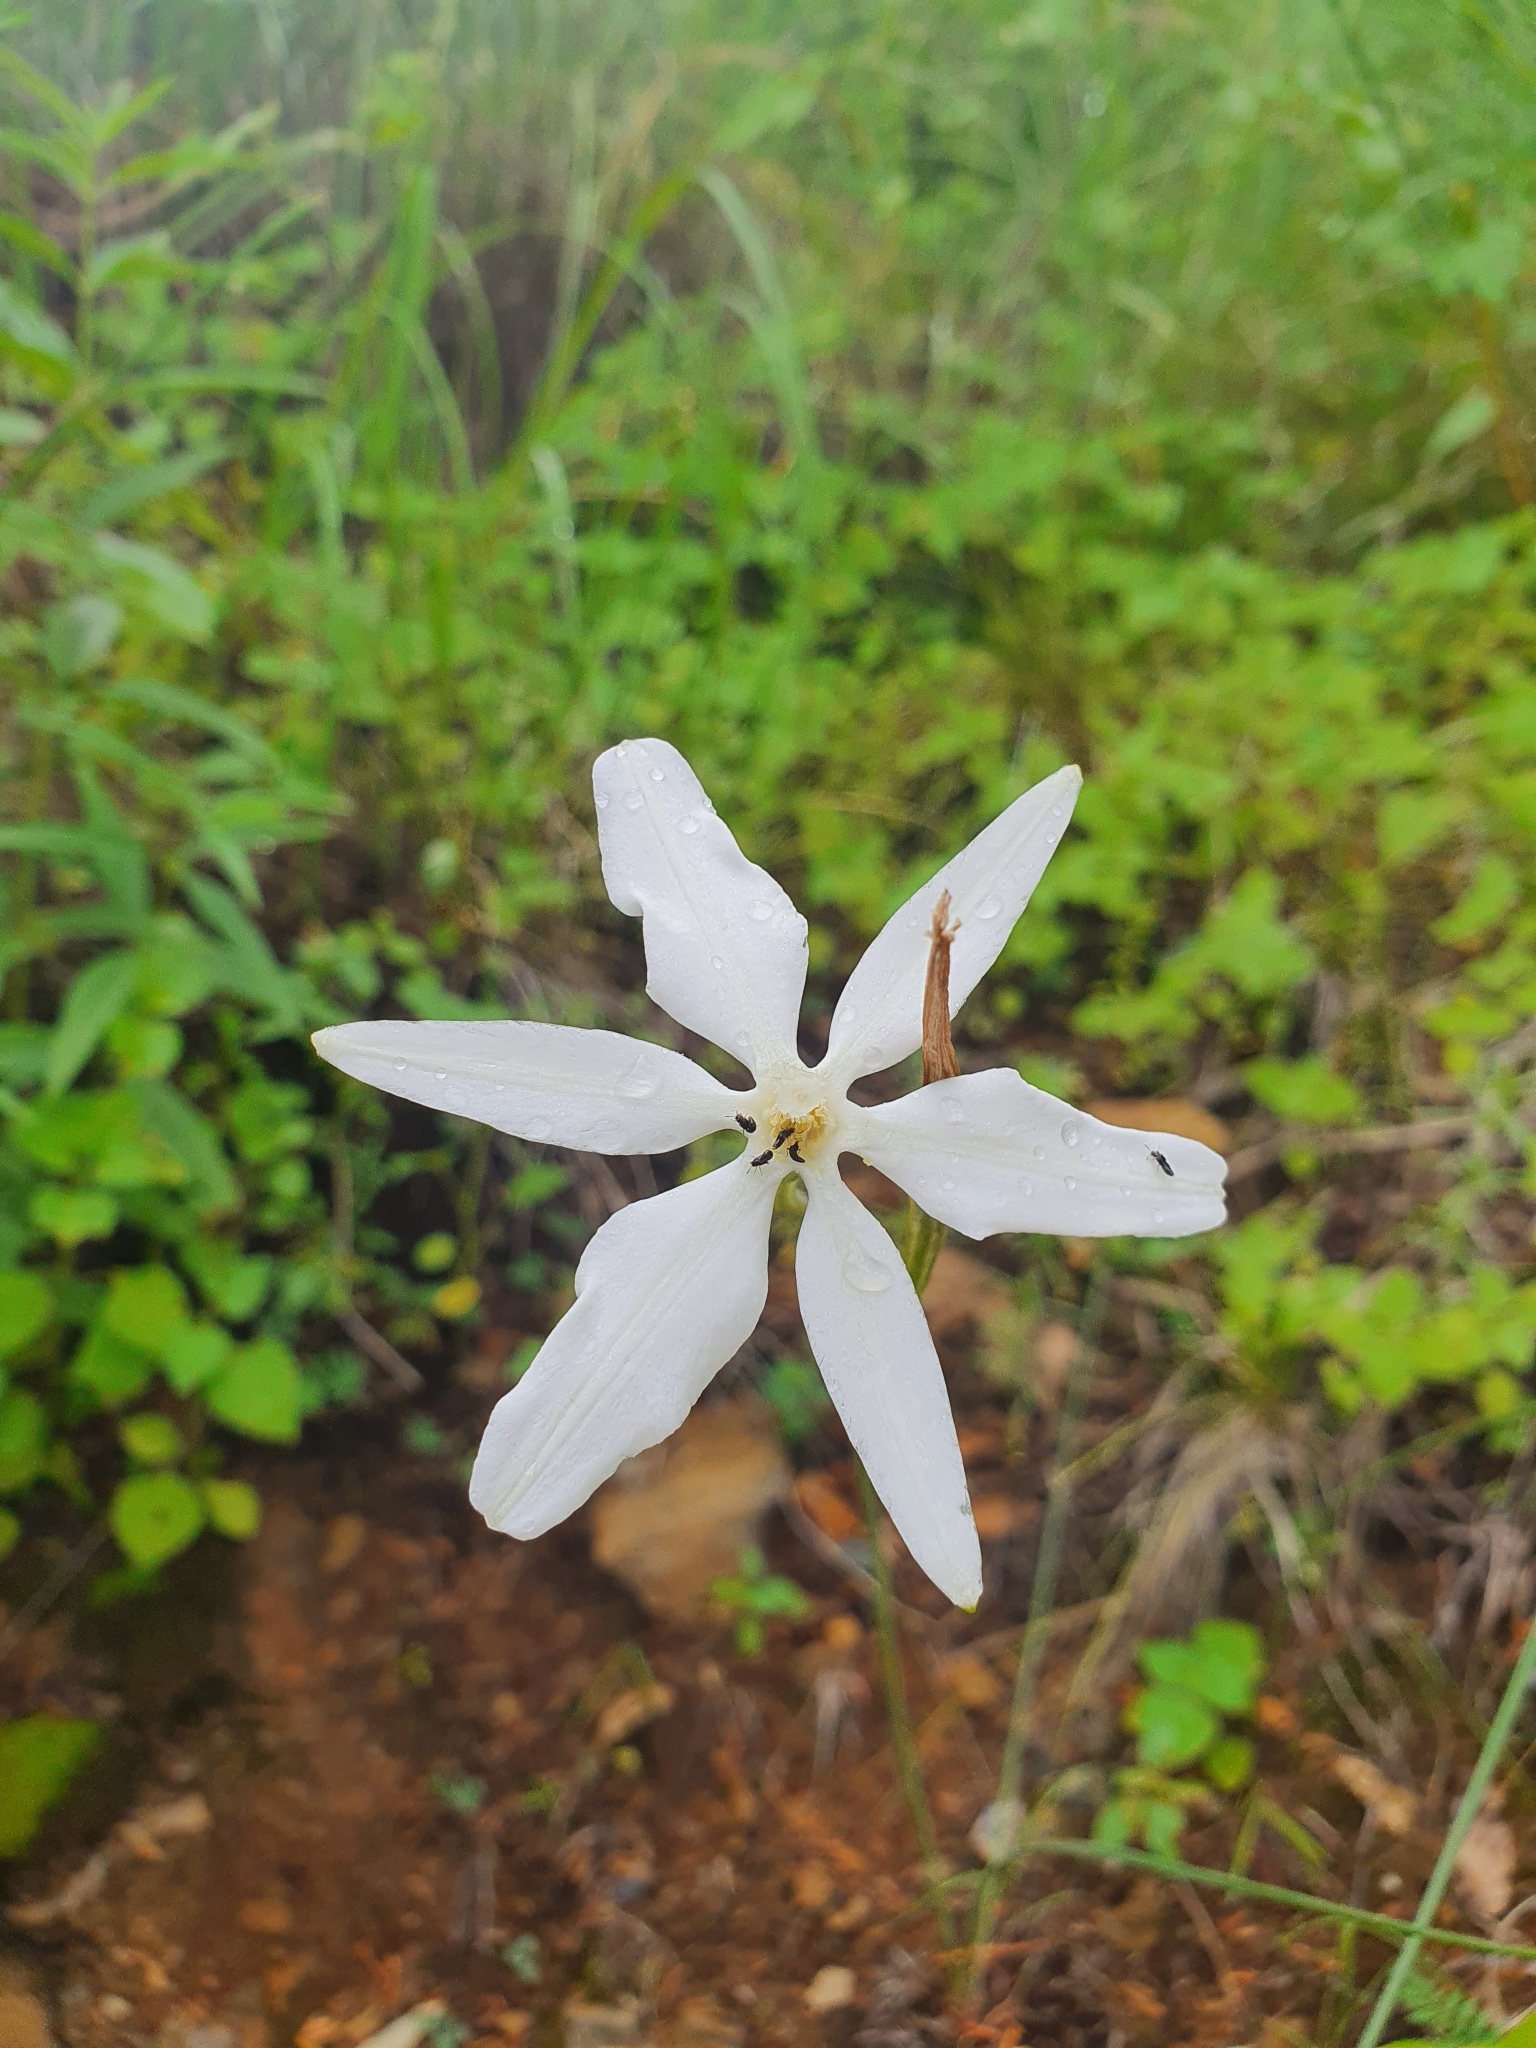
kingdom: Plantae
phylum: Tracheophyta
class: Liliopsida
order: Asparagales
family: Asparagaceae
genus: Milla
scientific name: Milla biflora
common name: Mexican-star
